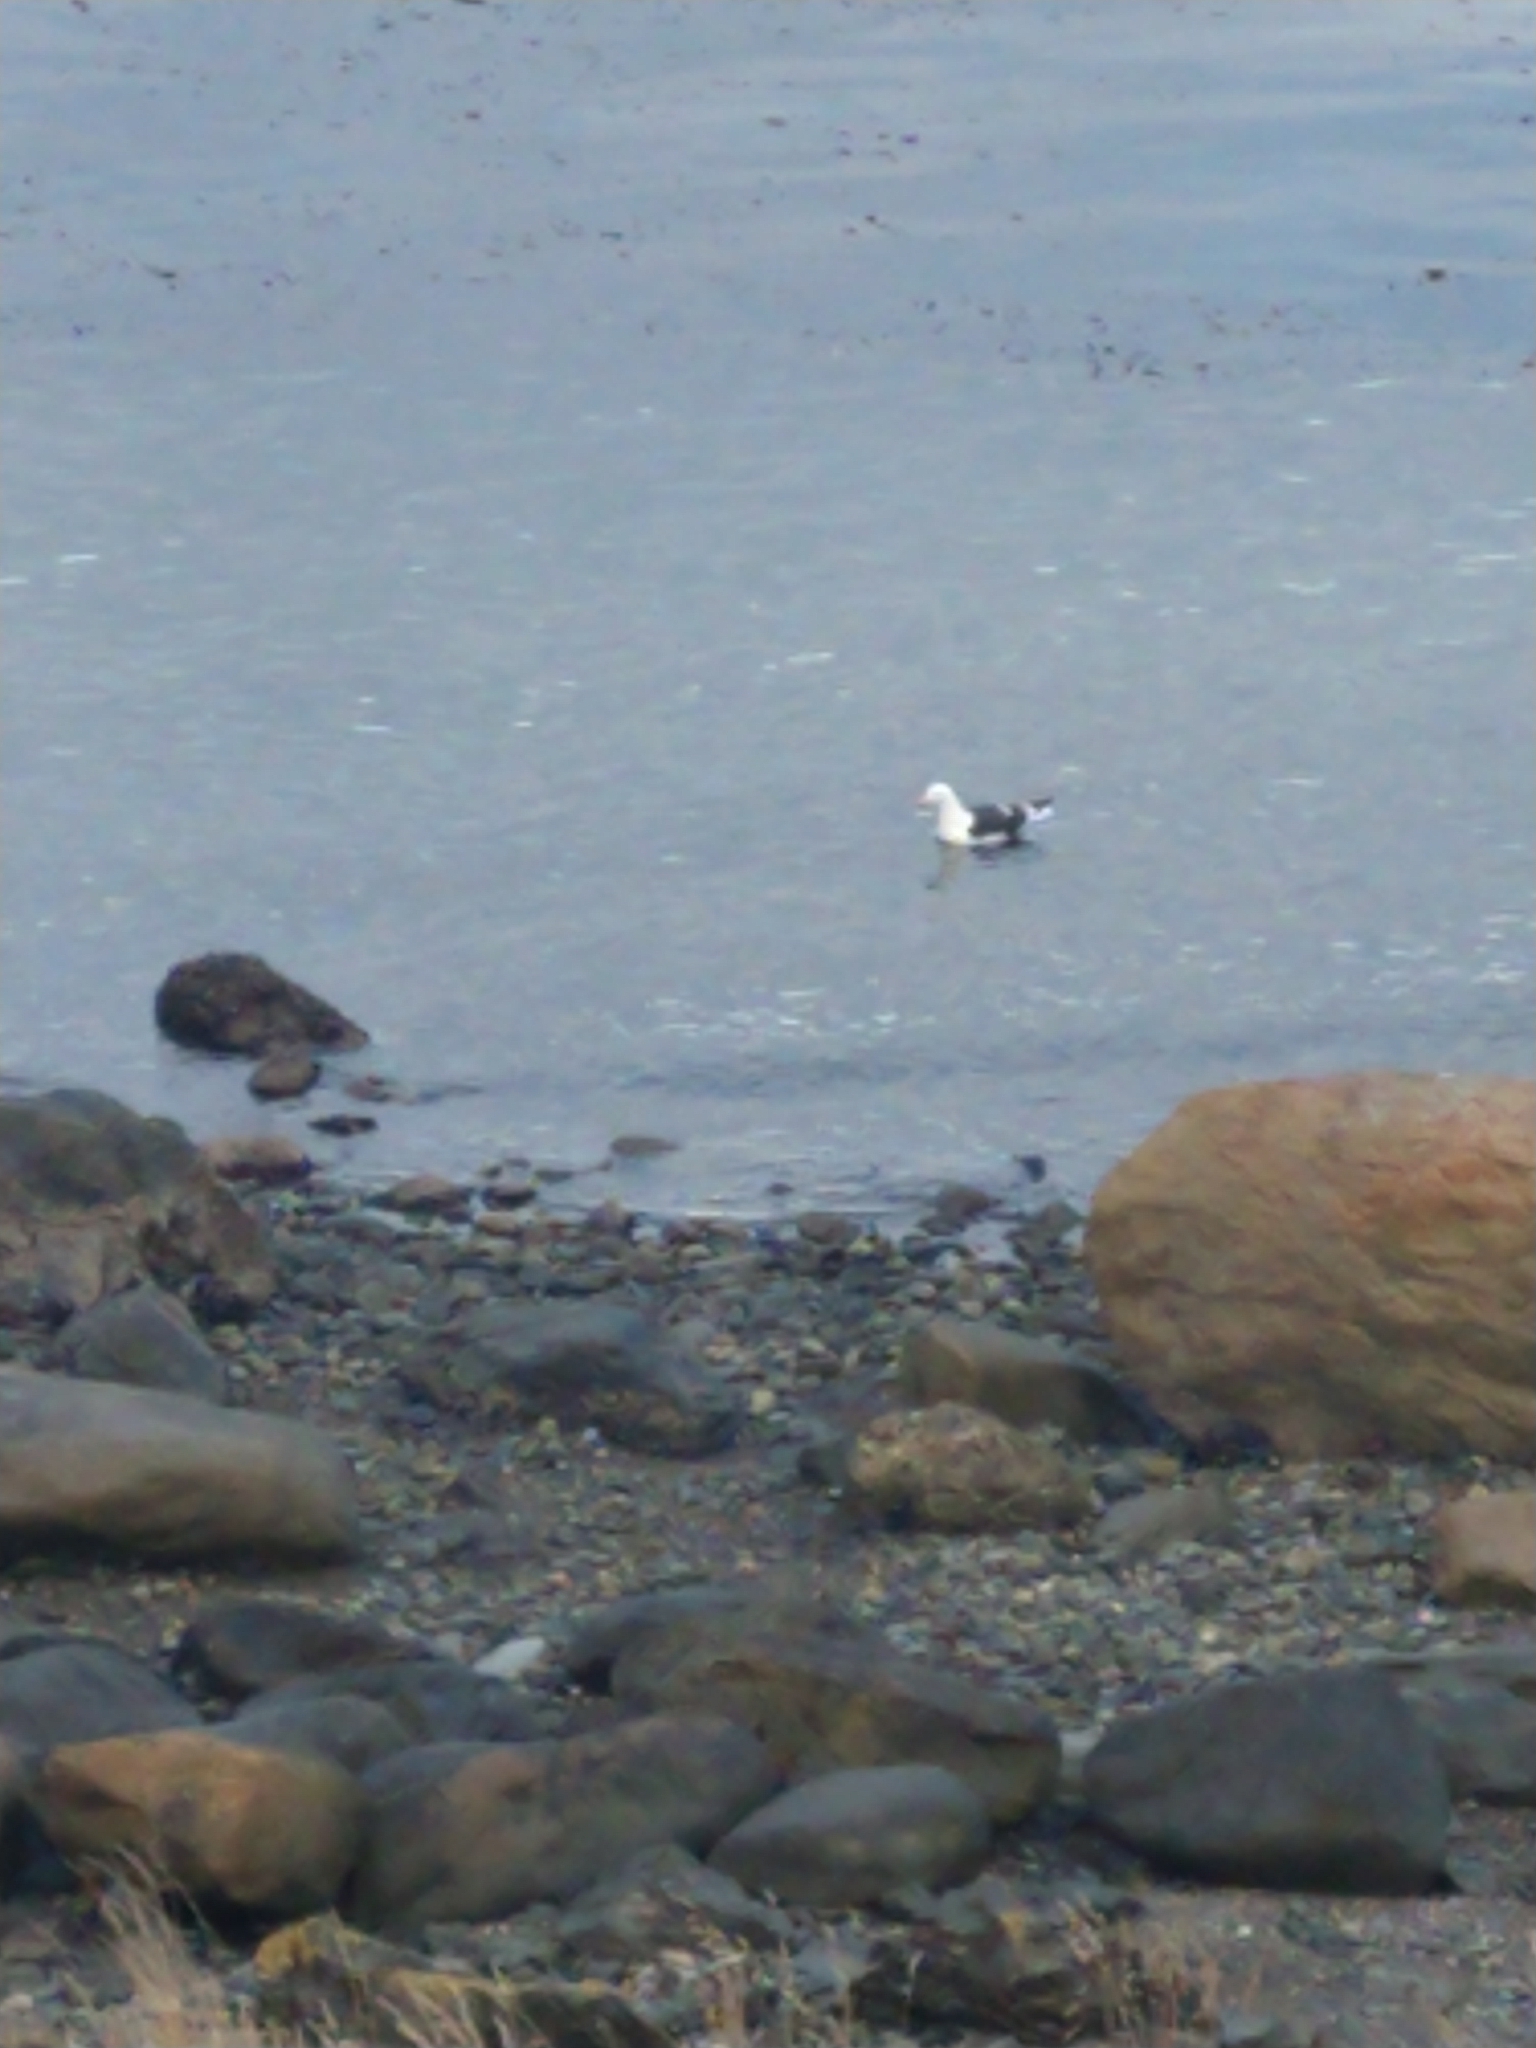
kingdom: Animalia
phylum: Chordata
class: Aves
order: Charadriiformes
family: Laridae
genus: Larus
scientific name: Larus dominicanus
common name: Kelp gull
